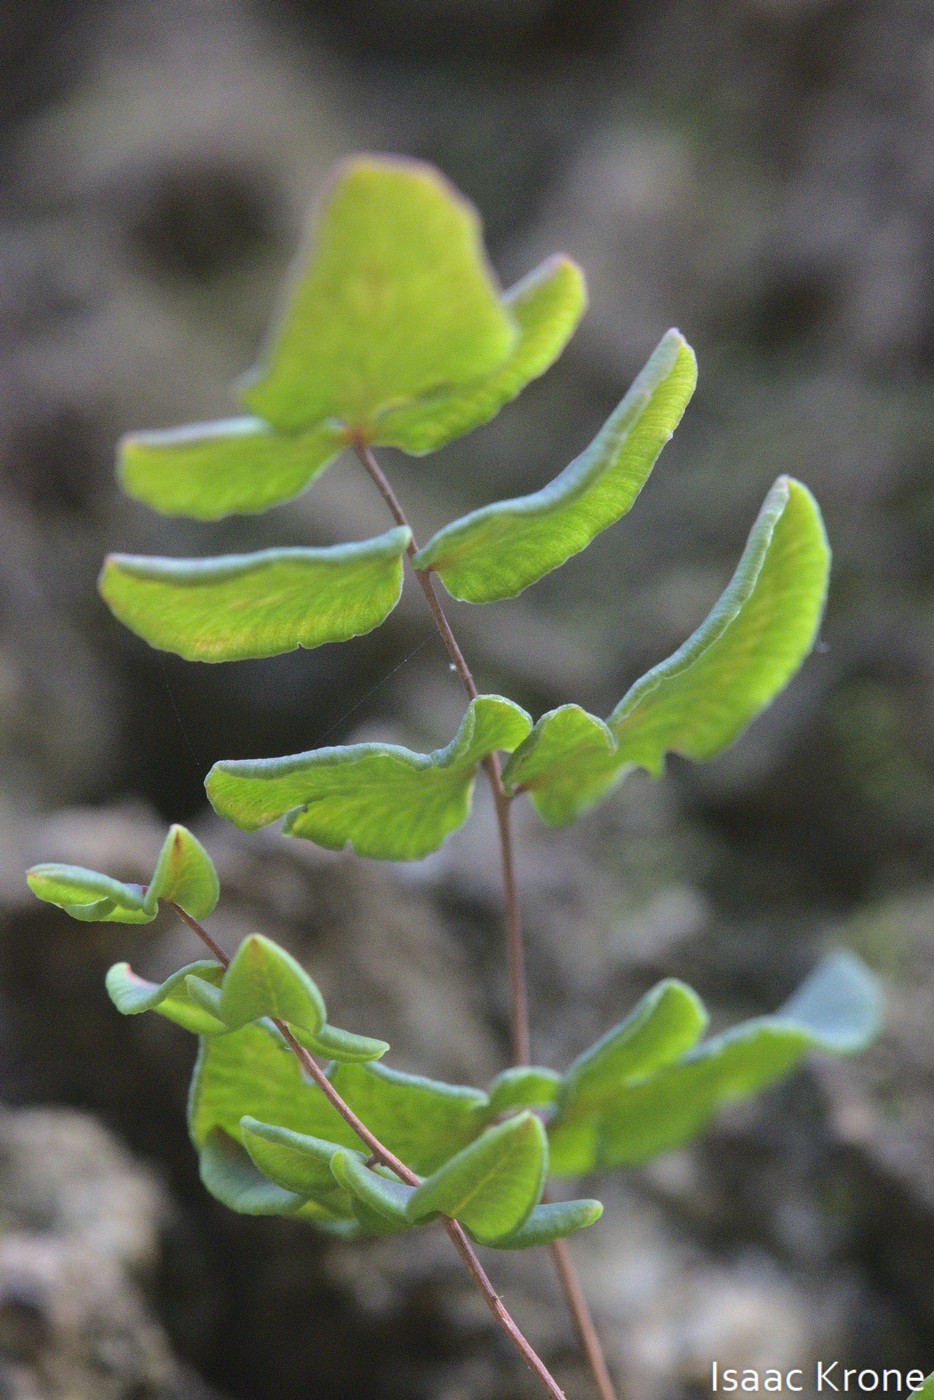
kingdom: Plantae
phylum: Tracheophyta
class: Polypodiopsida
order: Polypodiales
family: Pteridaceae
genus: Pellaea
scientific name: Pellaea andromedifolia
